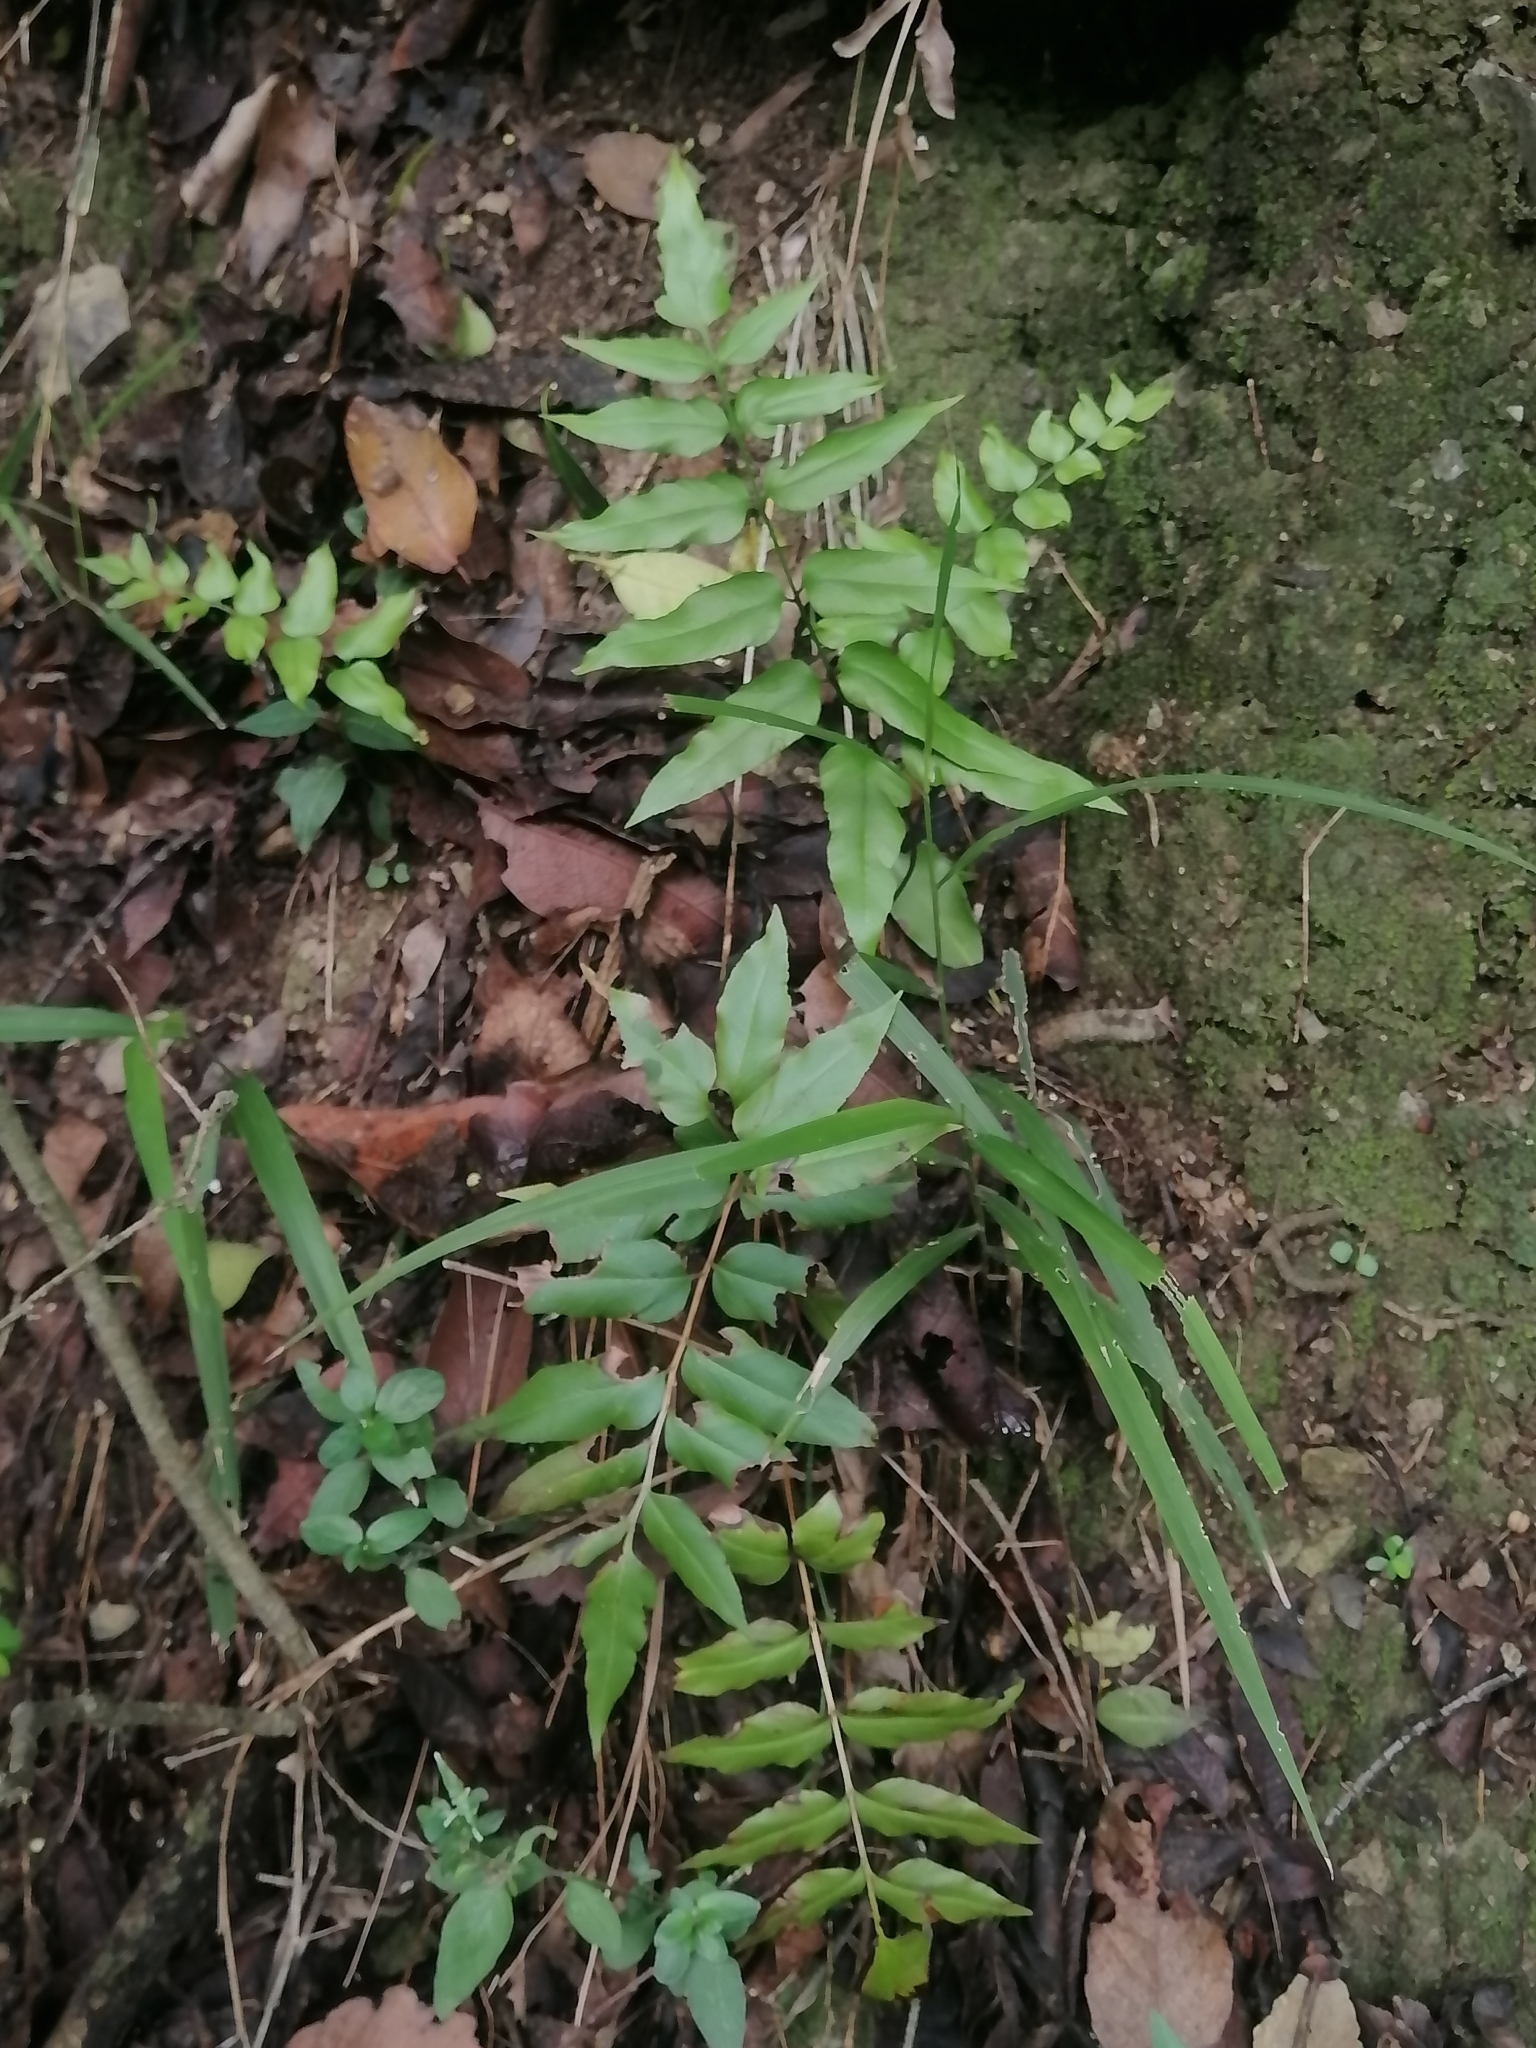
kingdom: Plantae
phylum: Tracheophyta
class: Polypodiopsida
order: Schizaeales
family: Anemiaceae
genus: Anemia
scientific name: Anemia mexicana
